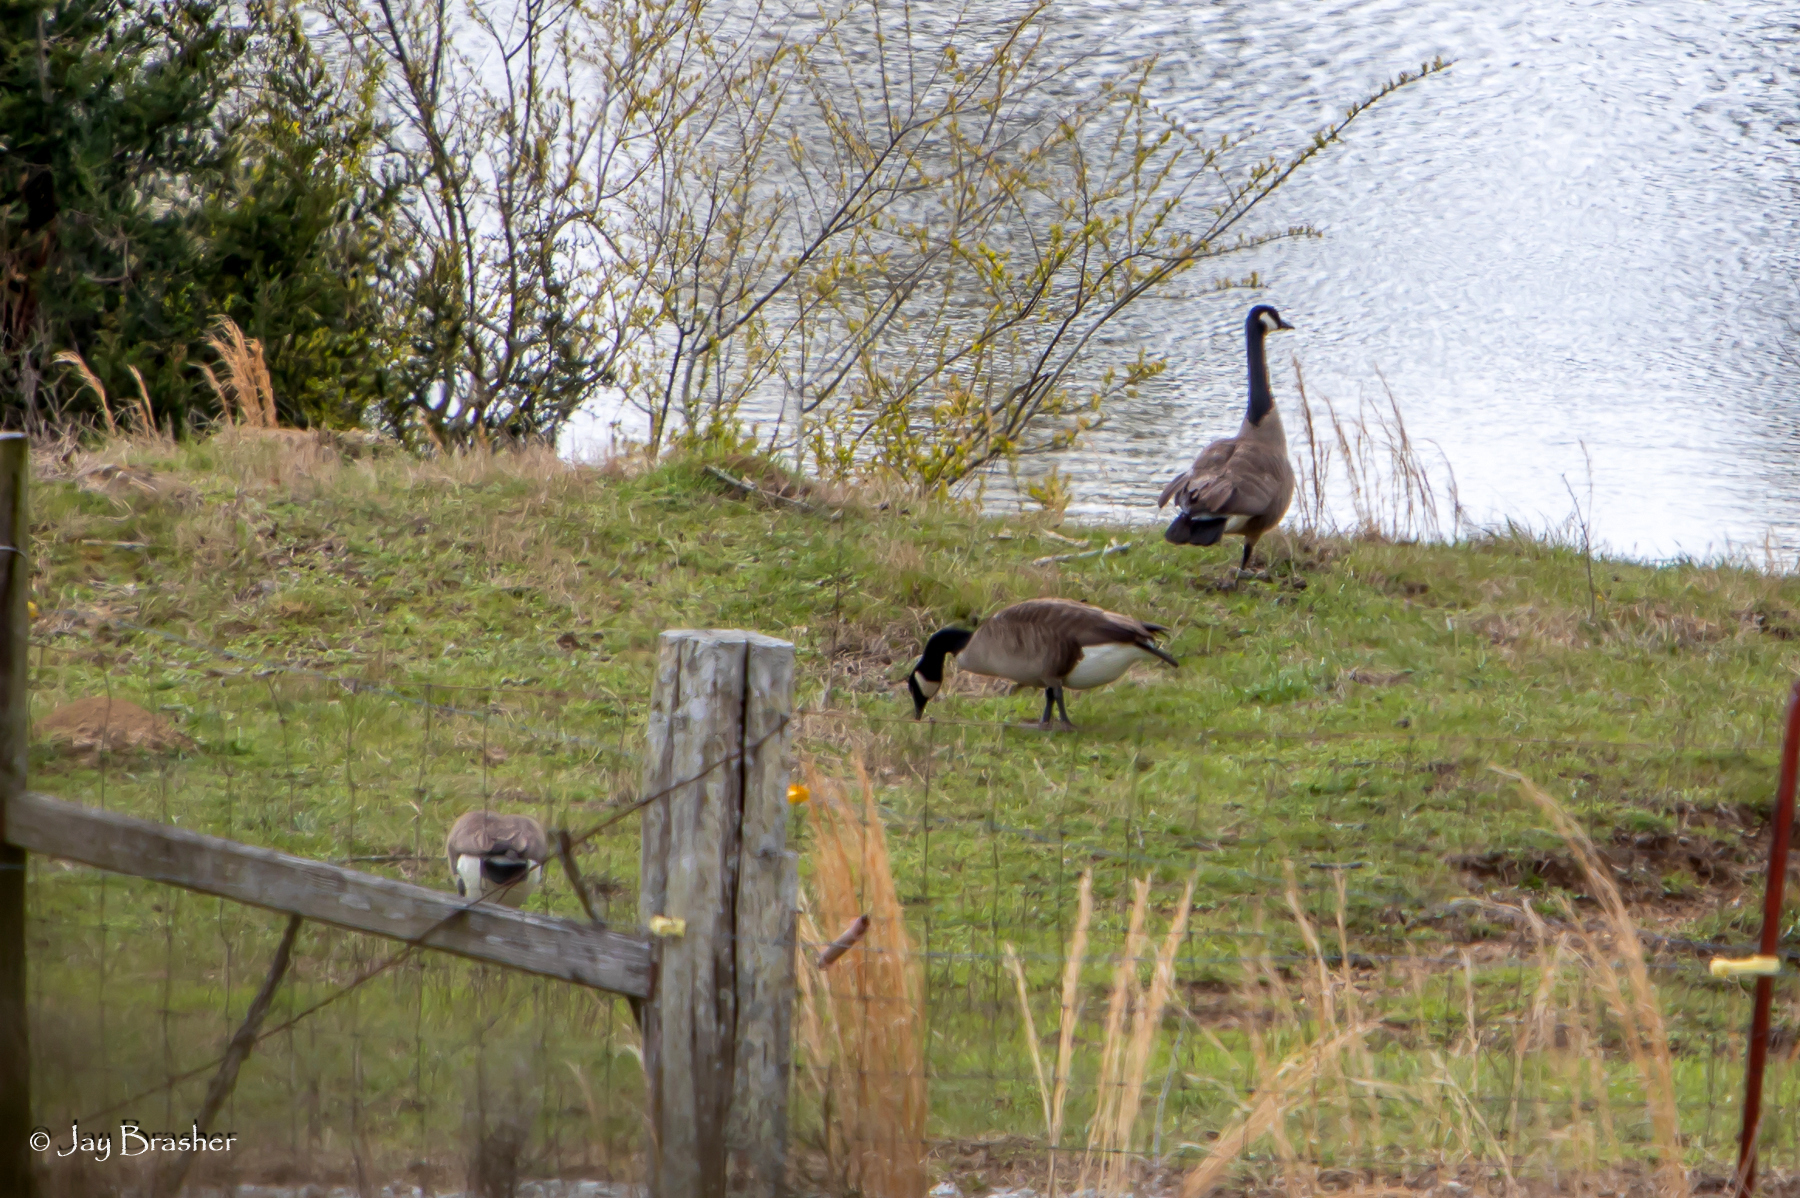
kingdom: Animalia
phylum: Chordata
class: Aves
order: Anseriformes
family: Anatidae
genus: Branta
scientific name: Branta canadensis
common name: Canada goose
